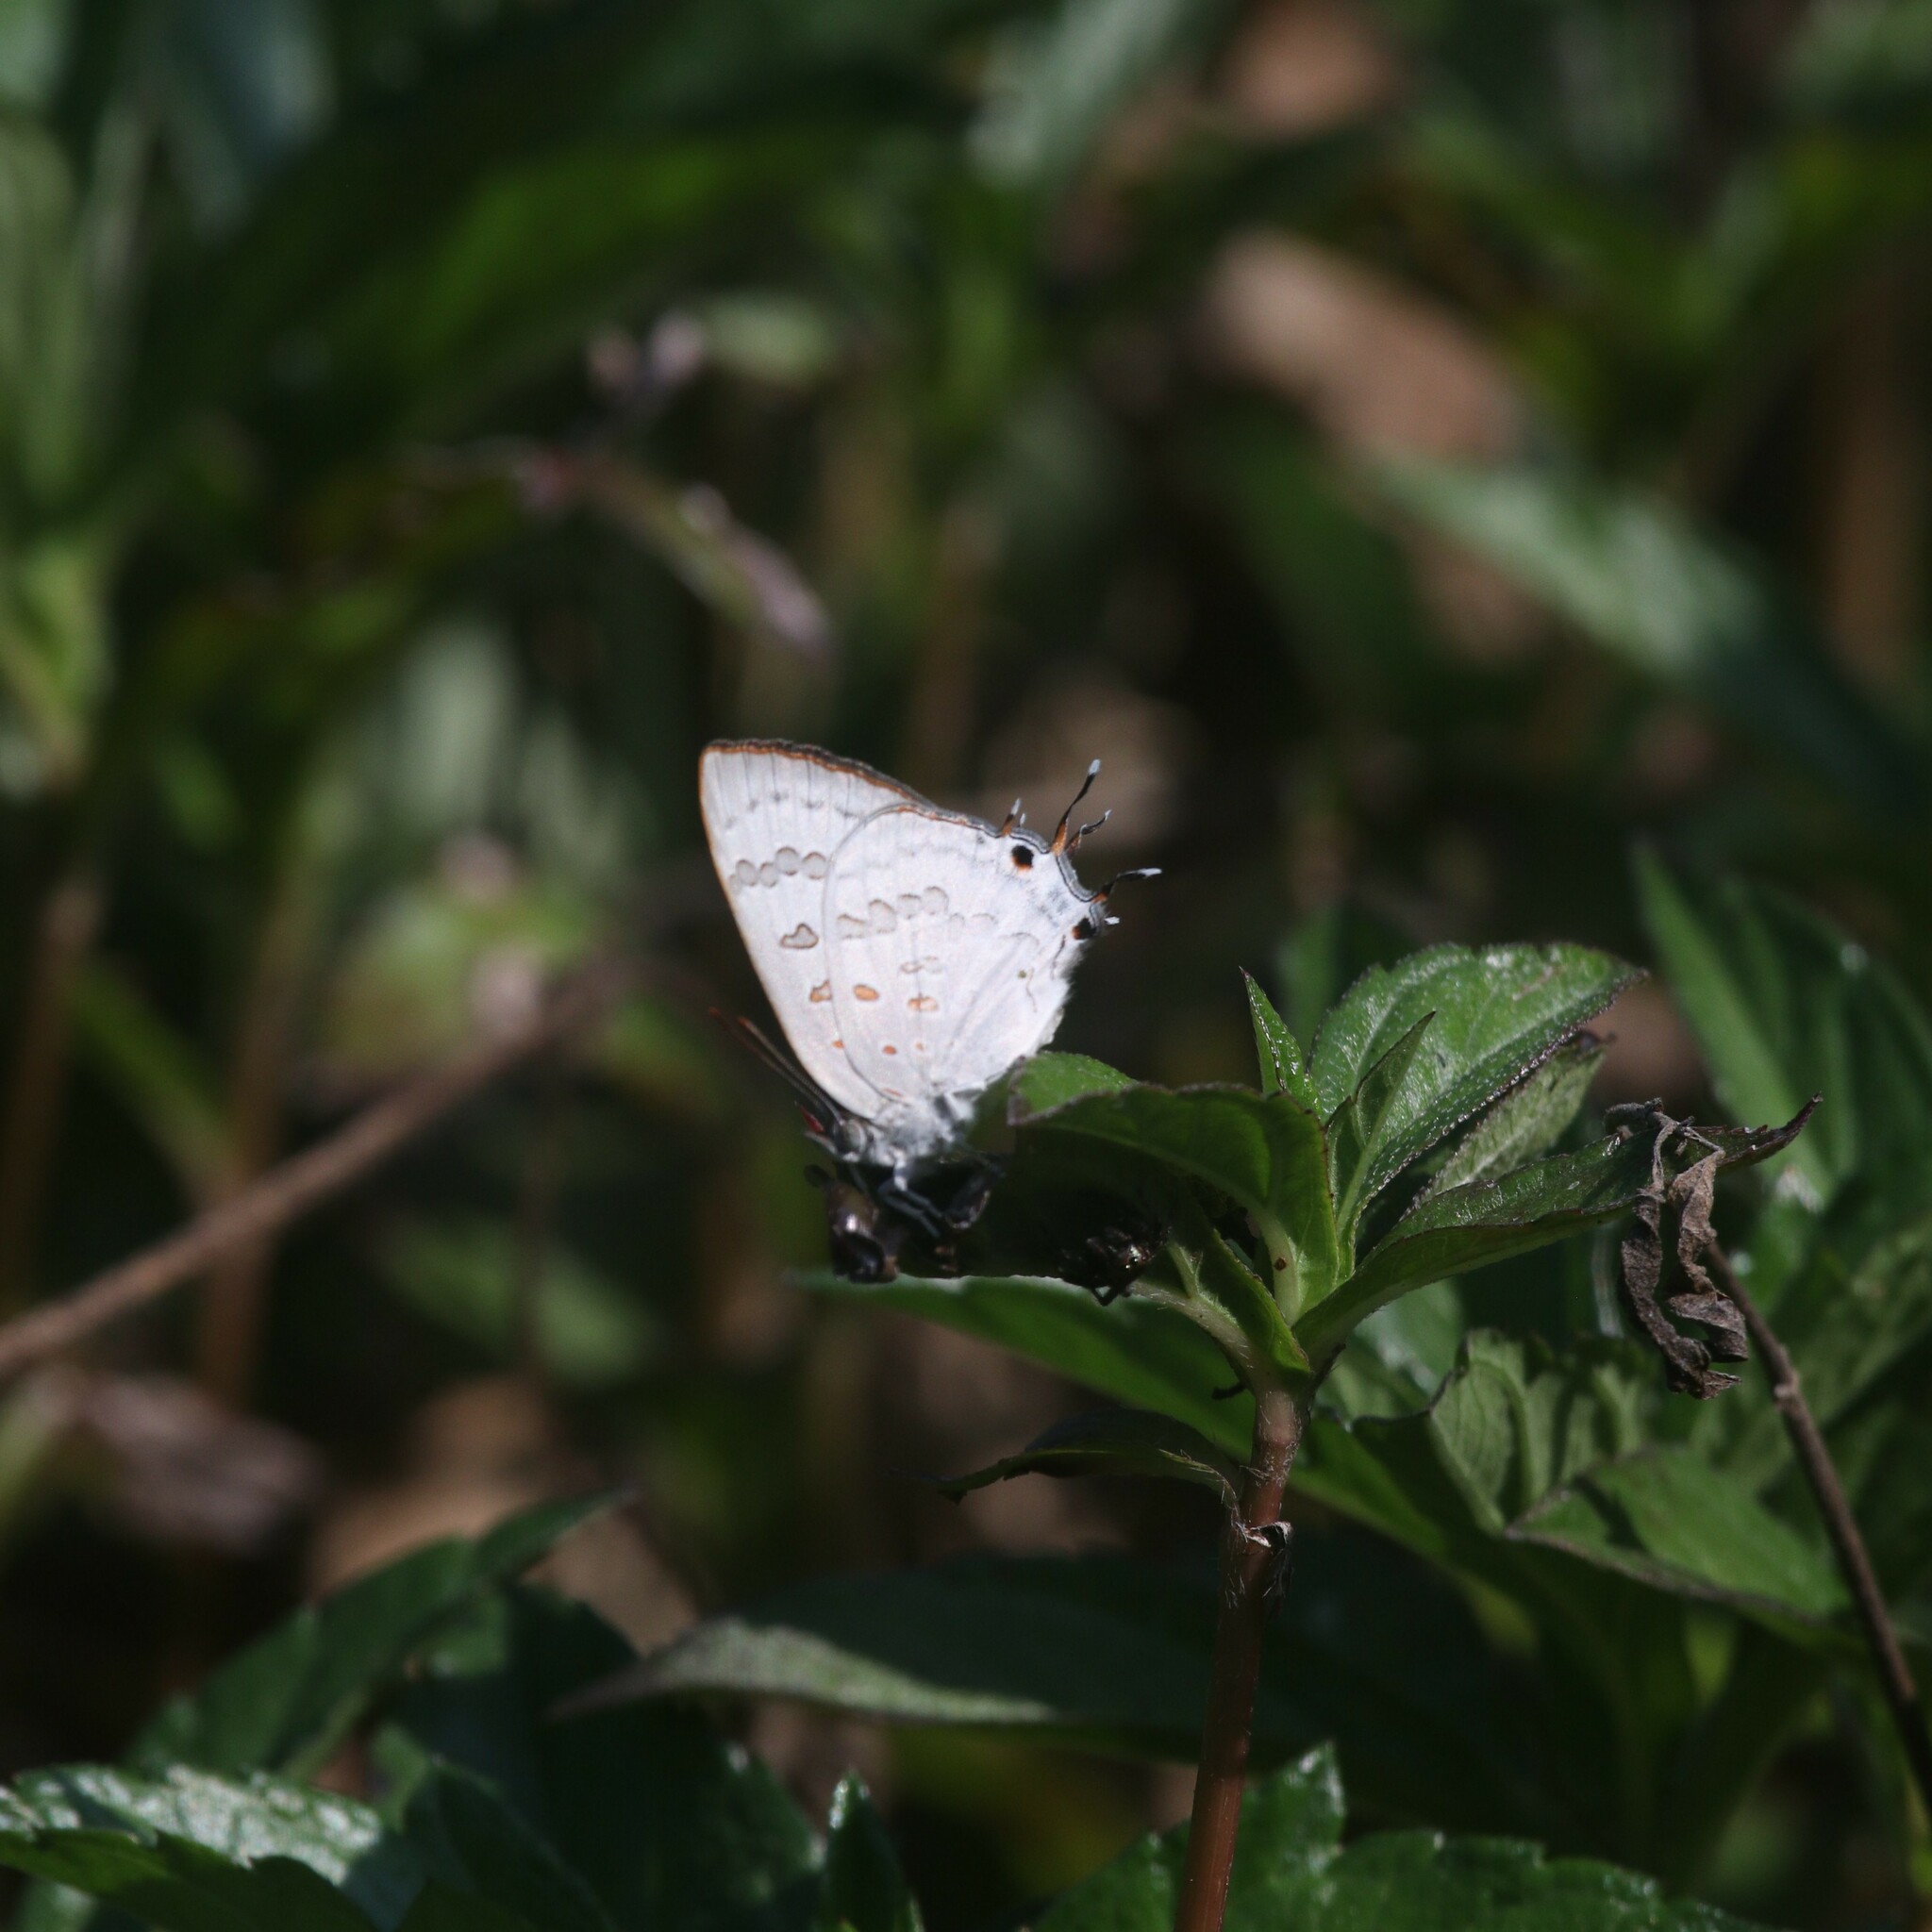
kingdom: Animalia
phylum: Arthropoda
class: Insecta
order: Lepidoptera
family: Lycaenidae
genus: Zesius
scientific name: Zesius chrysomallus
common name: Redspot
